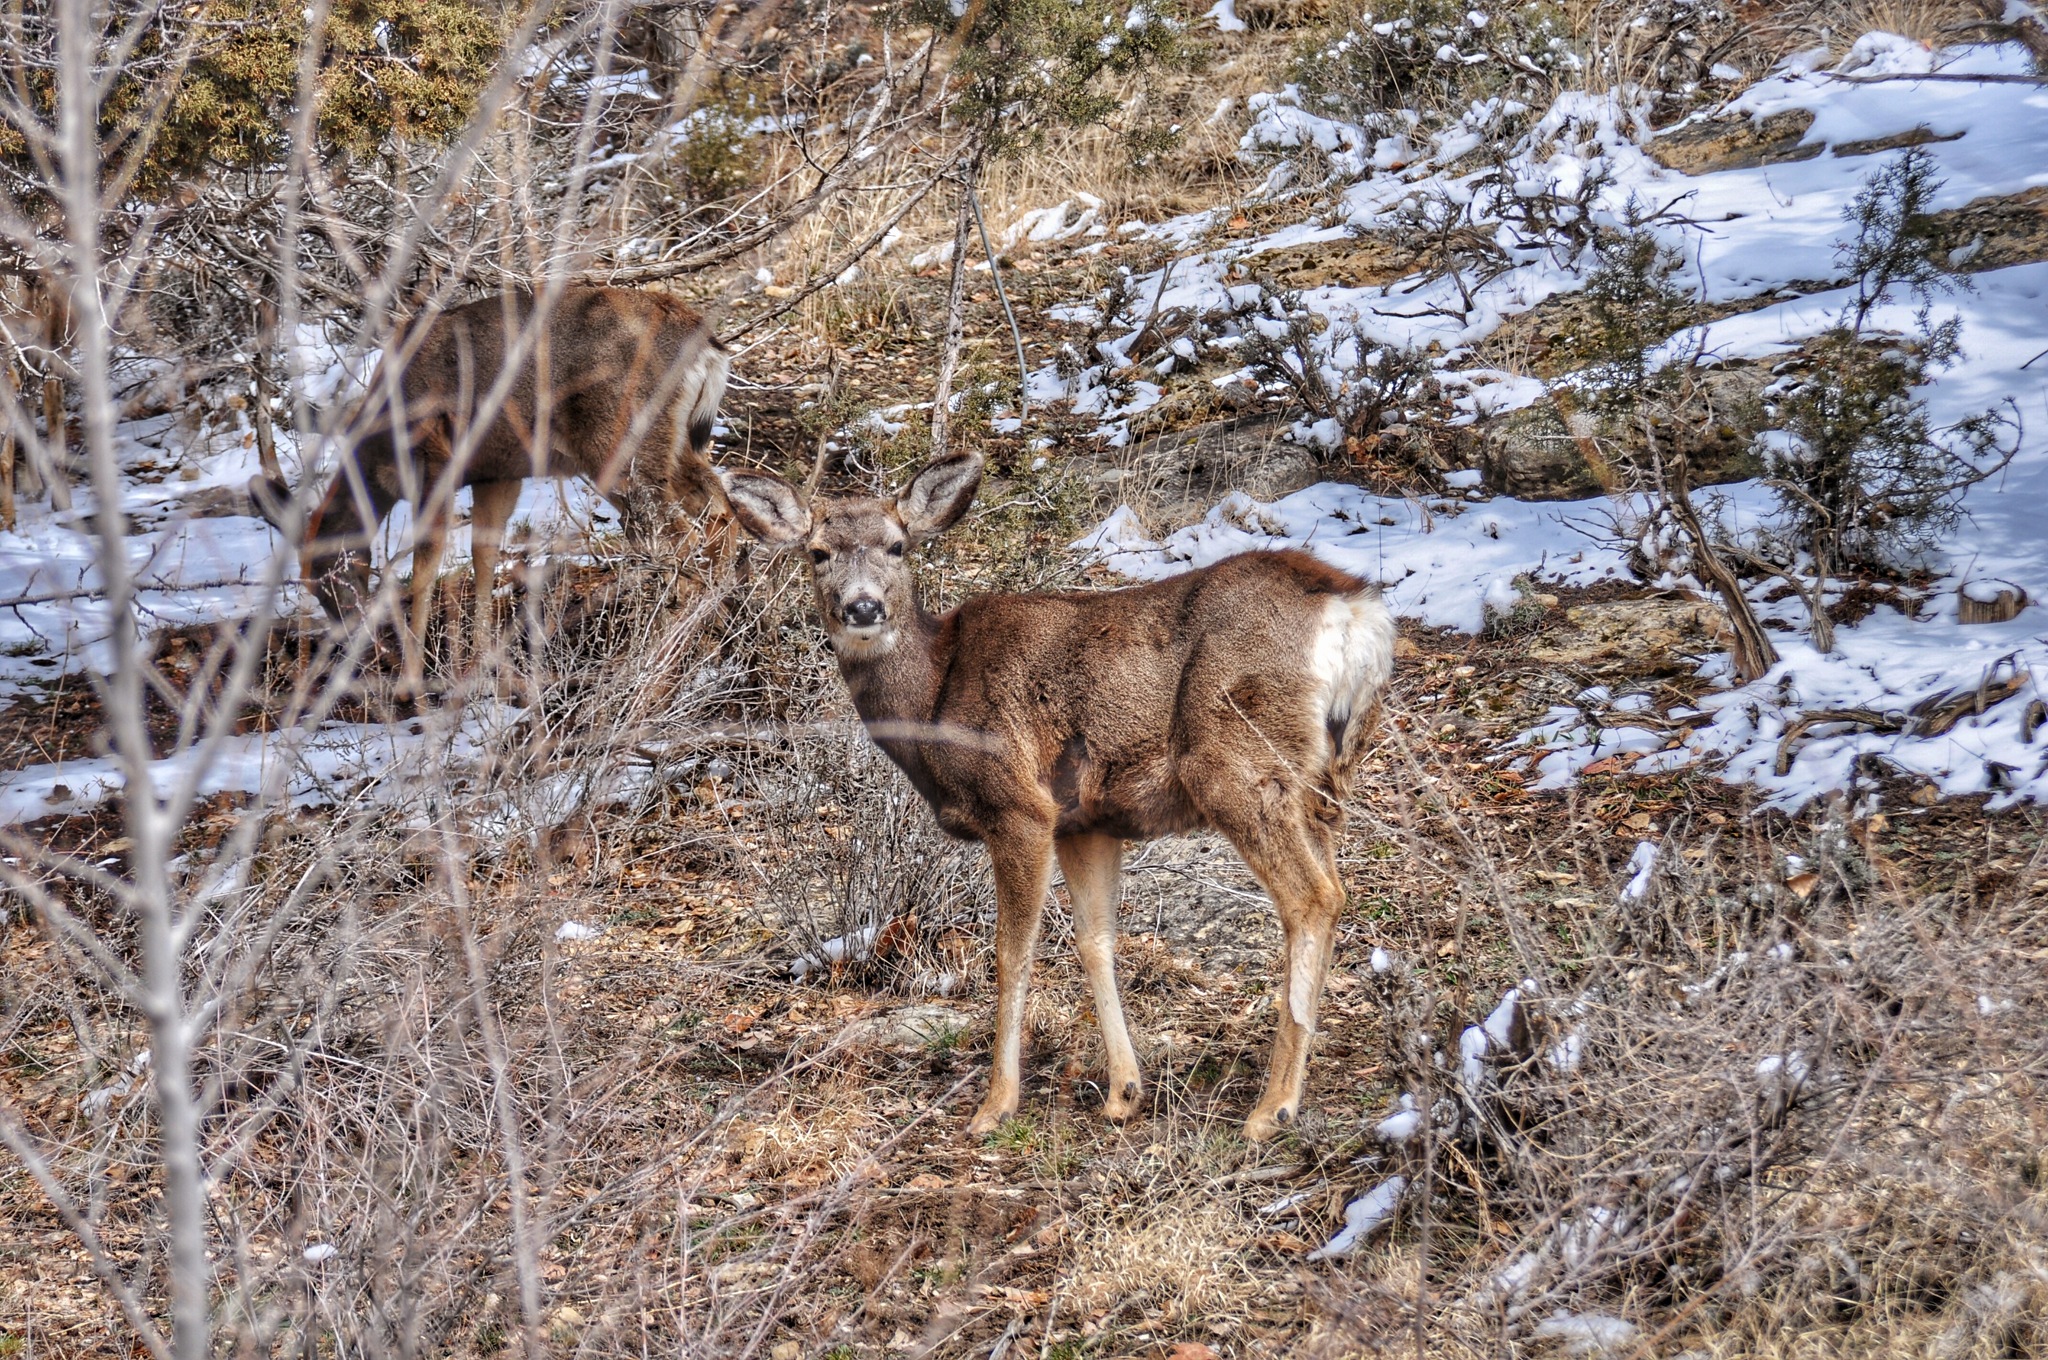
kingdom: Animalia
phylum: Chordata
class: Mammalia
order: Artiodactyla
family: Cervidae
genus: Odocoileus
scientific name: Odocoileus hemionus
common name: Mule deer
